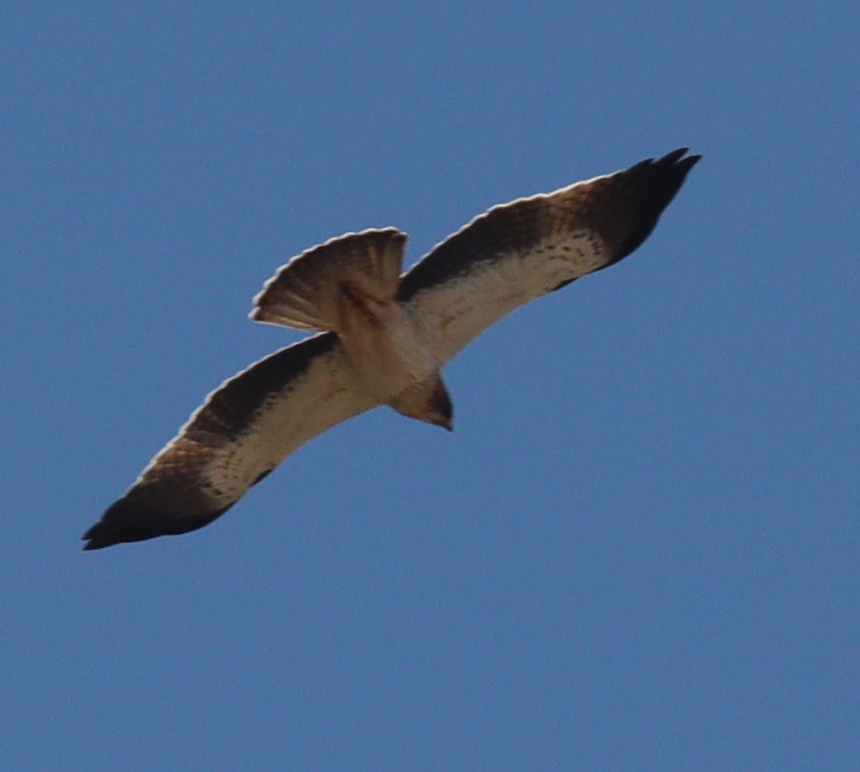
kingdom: Animalia
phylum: Chordata
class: Aves
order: Accipitriformes
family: Accipitridae
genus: Hieraaetus
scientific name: Hieraaetus pennatus
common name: Booted eagle
